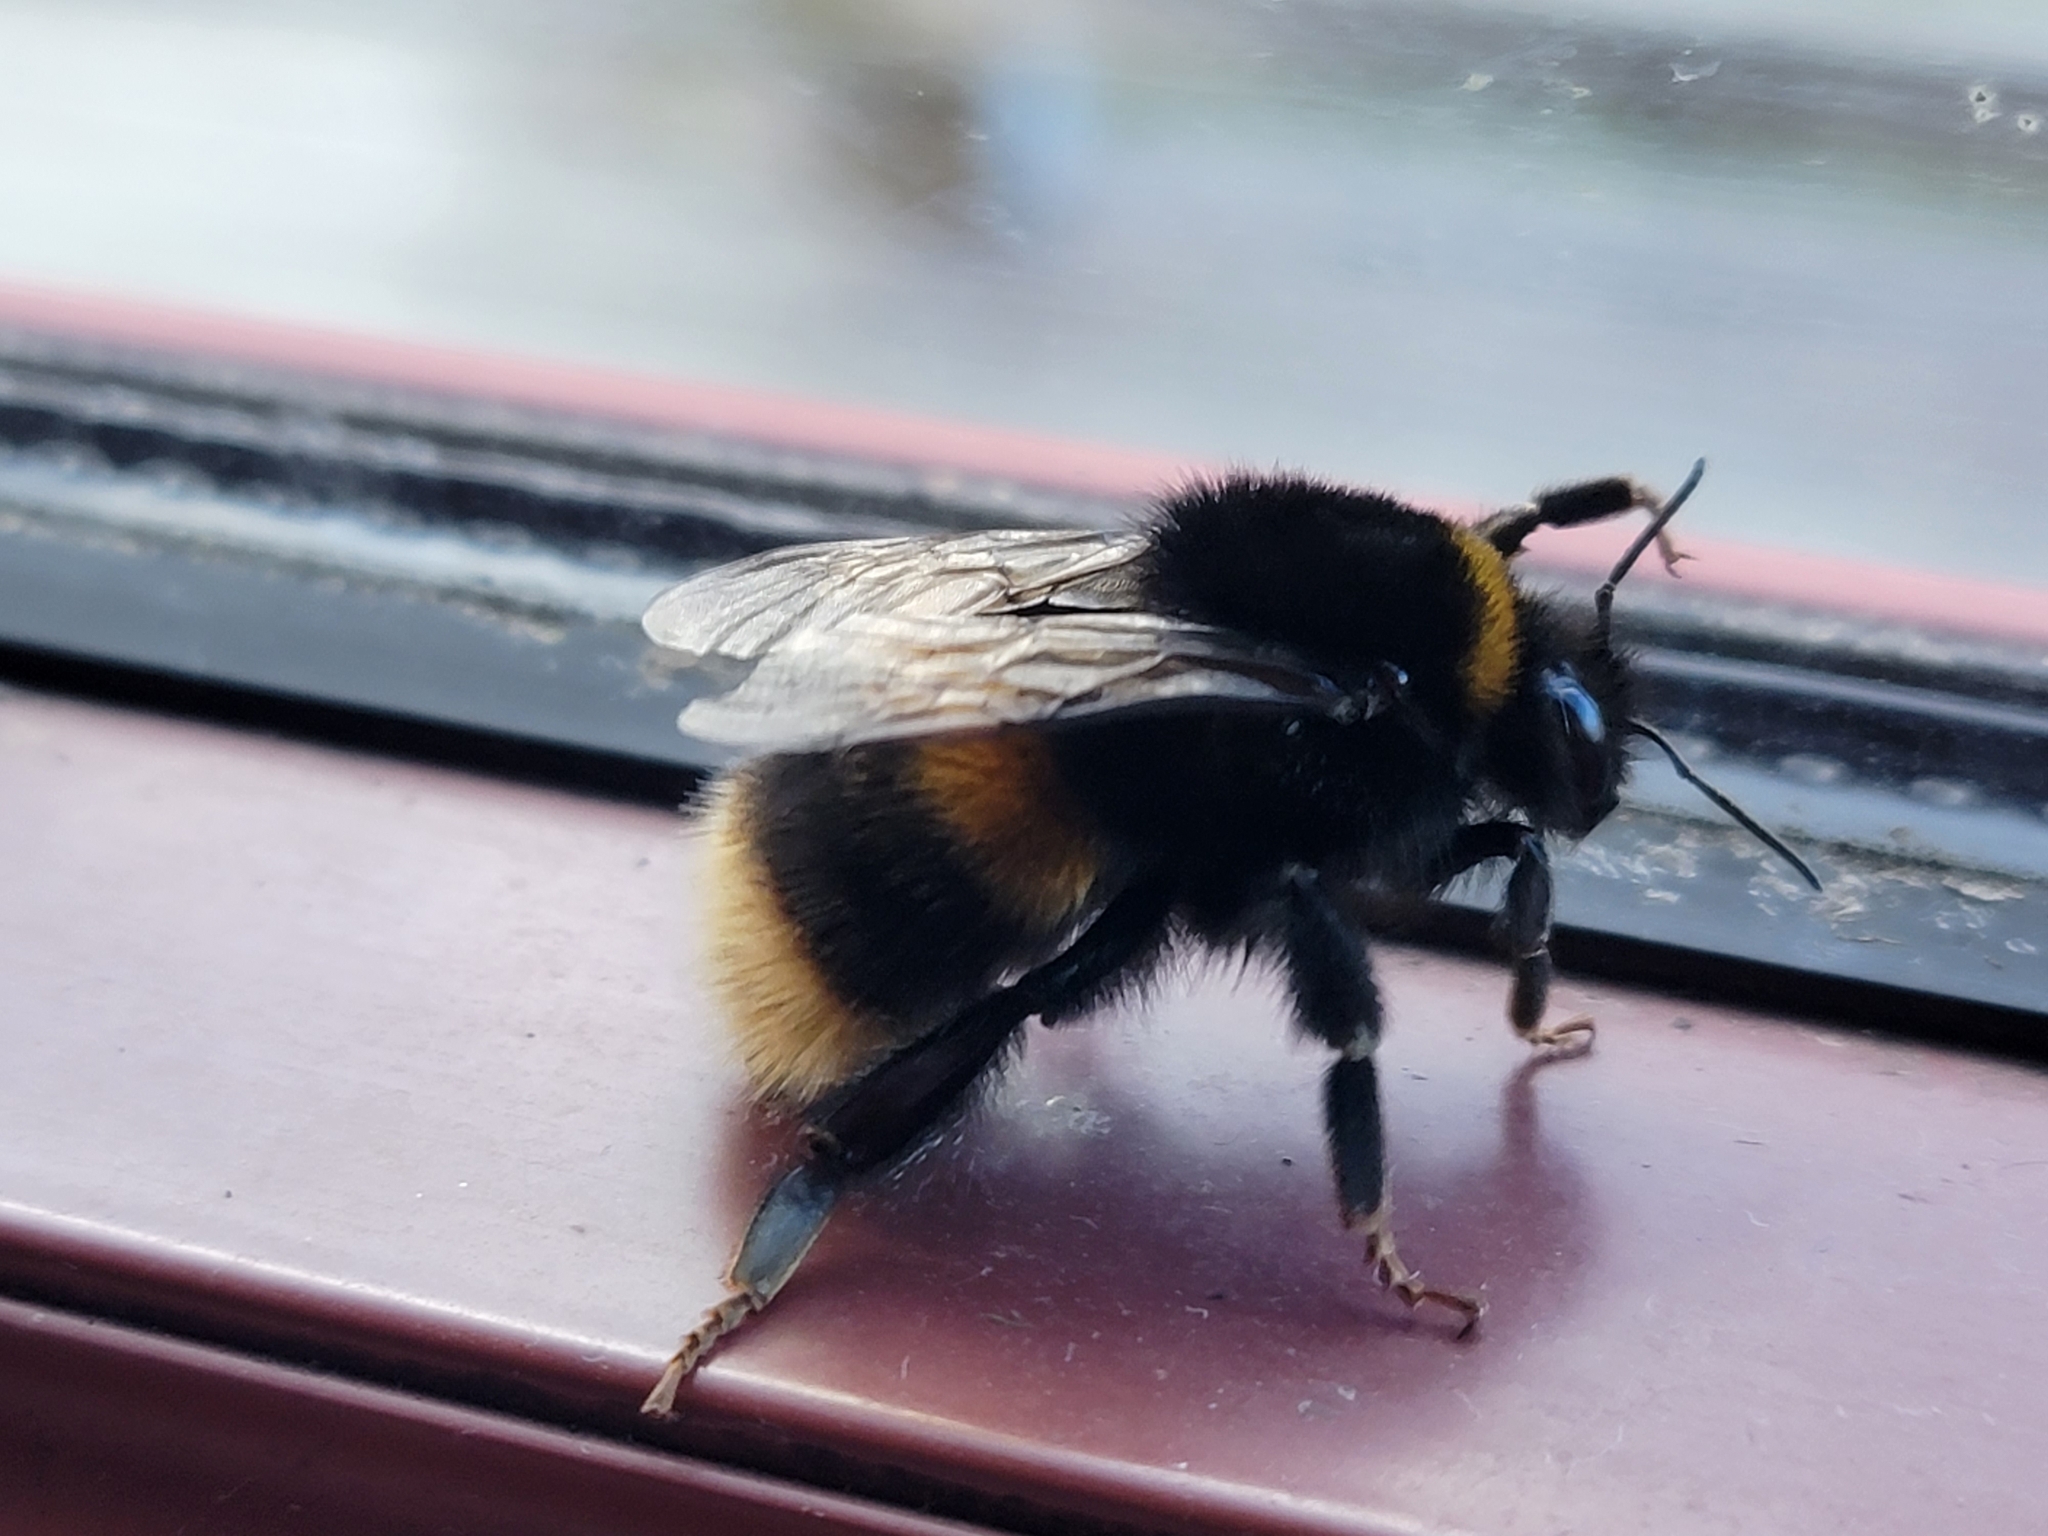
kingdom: Animalia
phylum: Arthropoda
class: Insecta
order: Hymenoptera
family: Apidae
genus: Bombus
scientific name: Bombus terrestris
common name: Buff-tailed bumblebee
